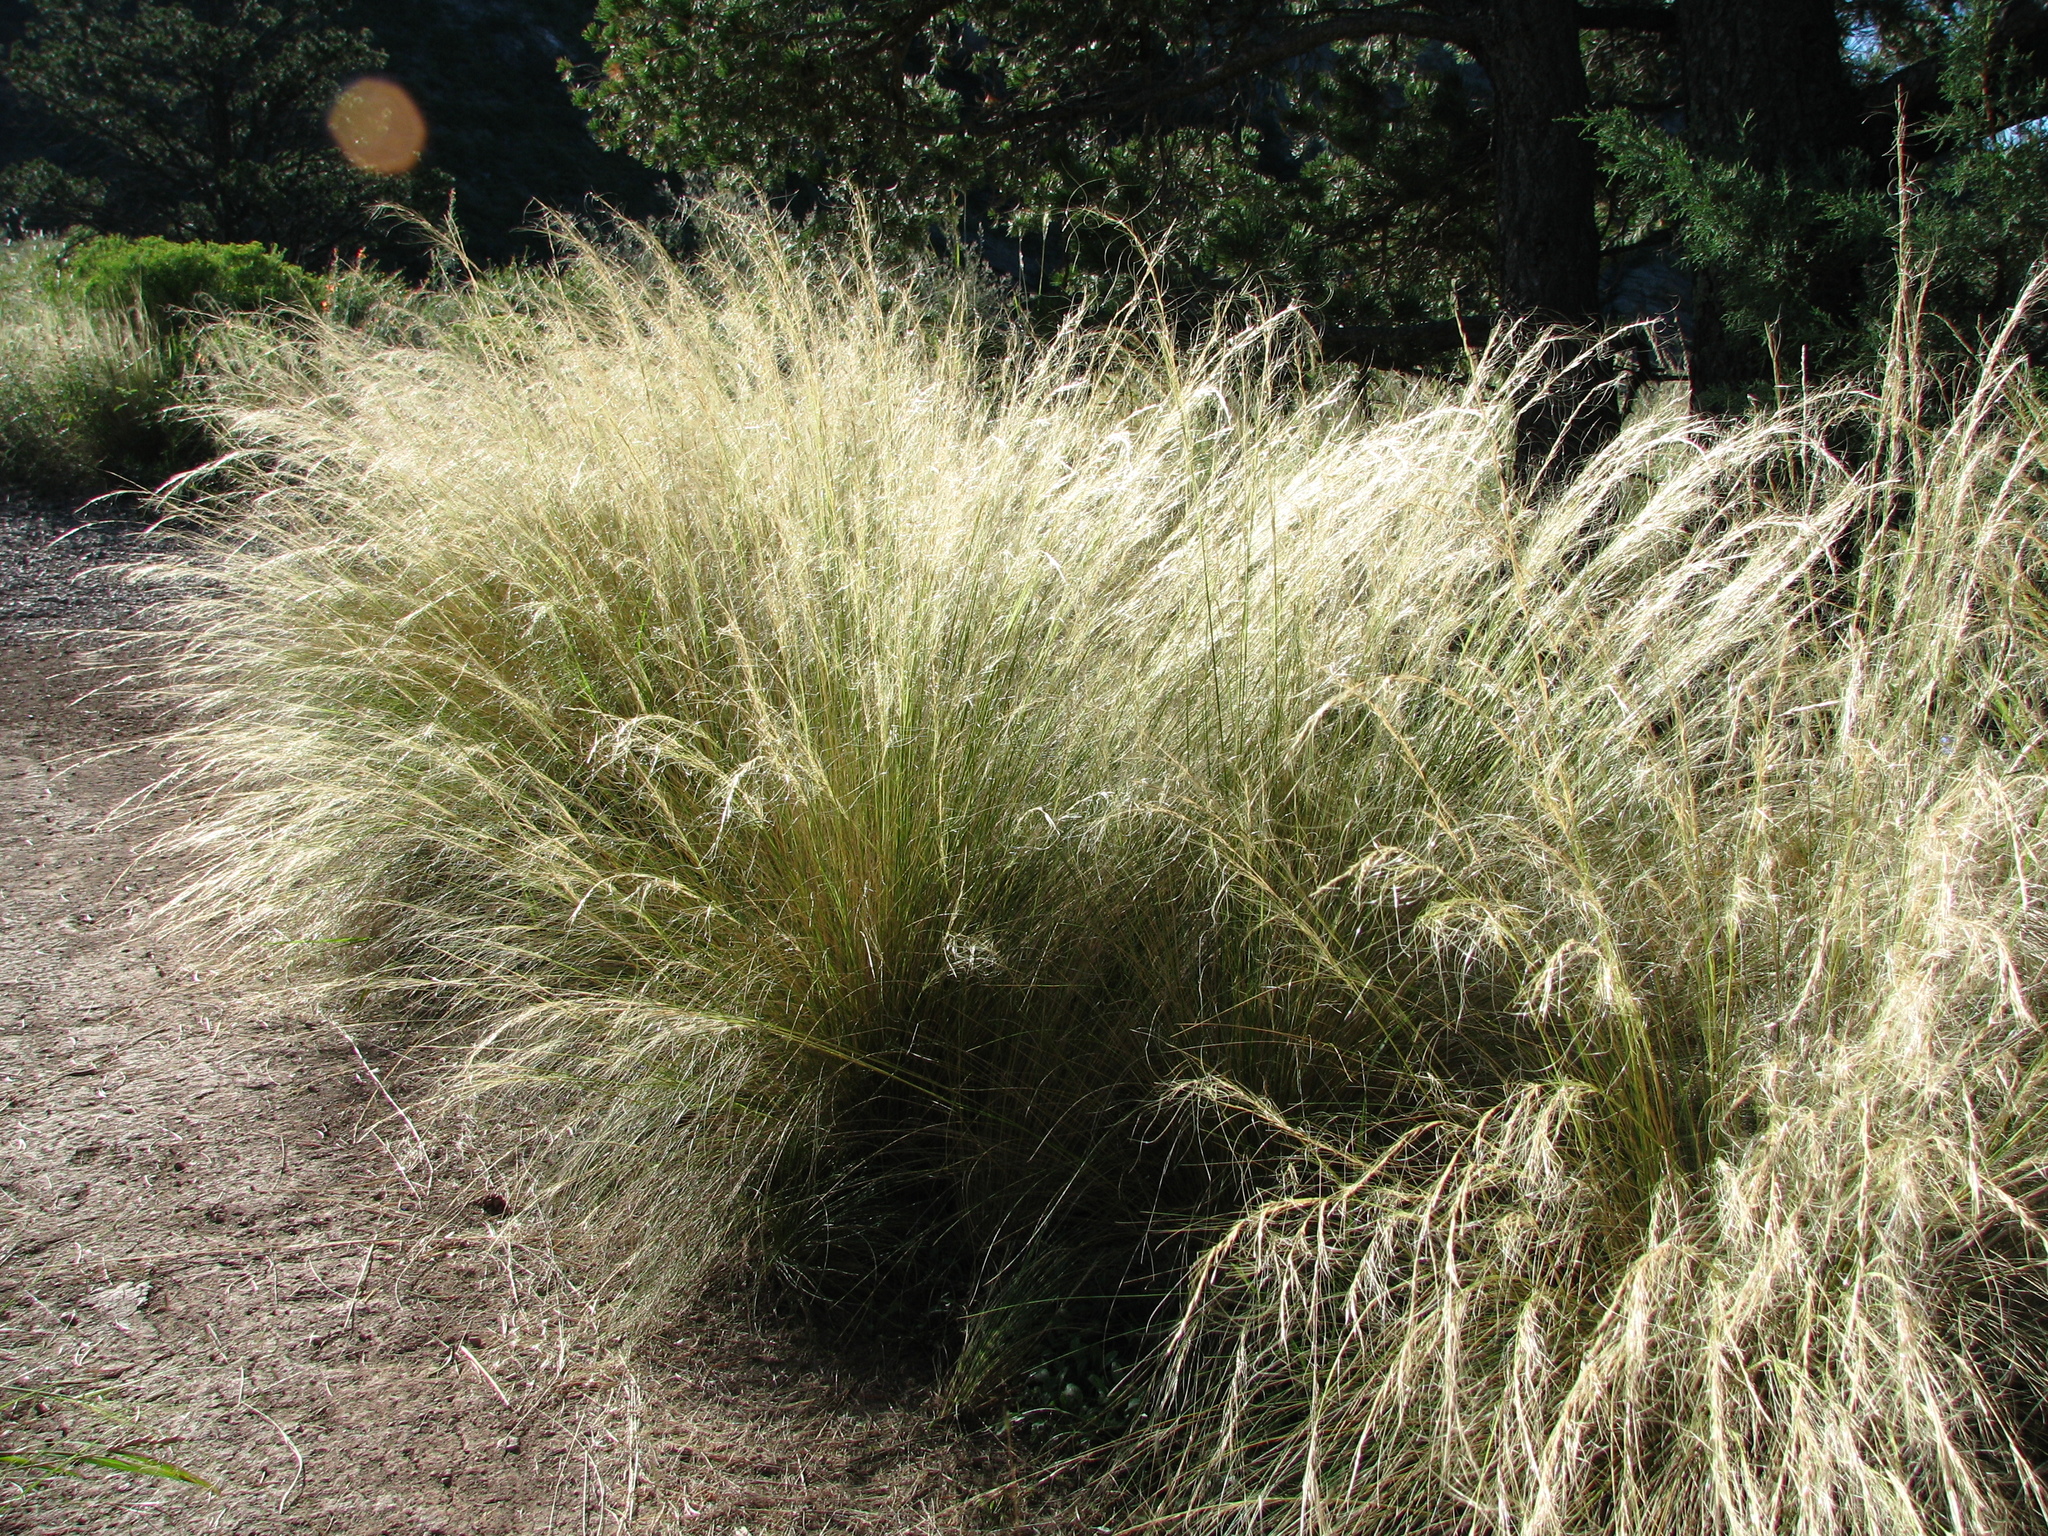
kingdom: Plantae
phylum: Tracheophyta
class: Liliopsida
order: Poales
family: Poaceae
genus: Nassella
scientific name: Nassella tenuissima
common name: Argentine needlegrass
